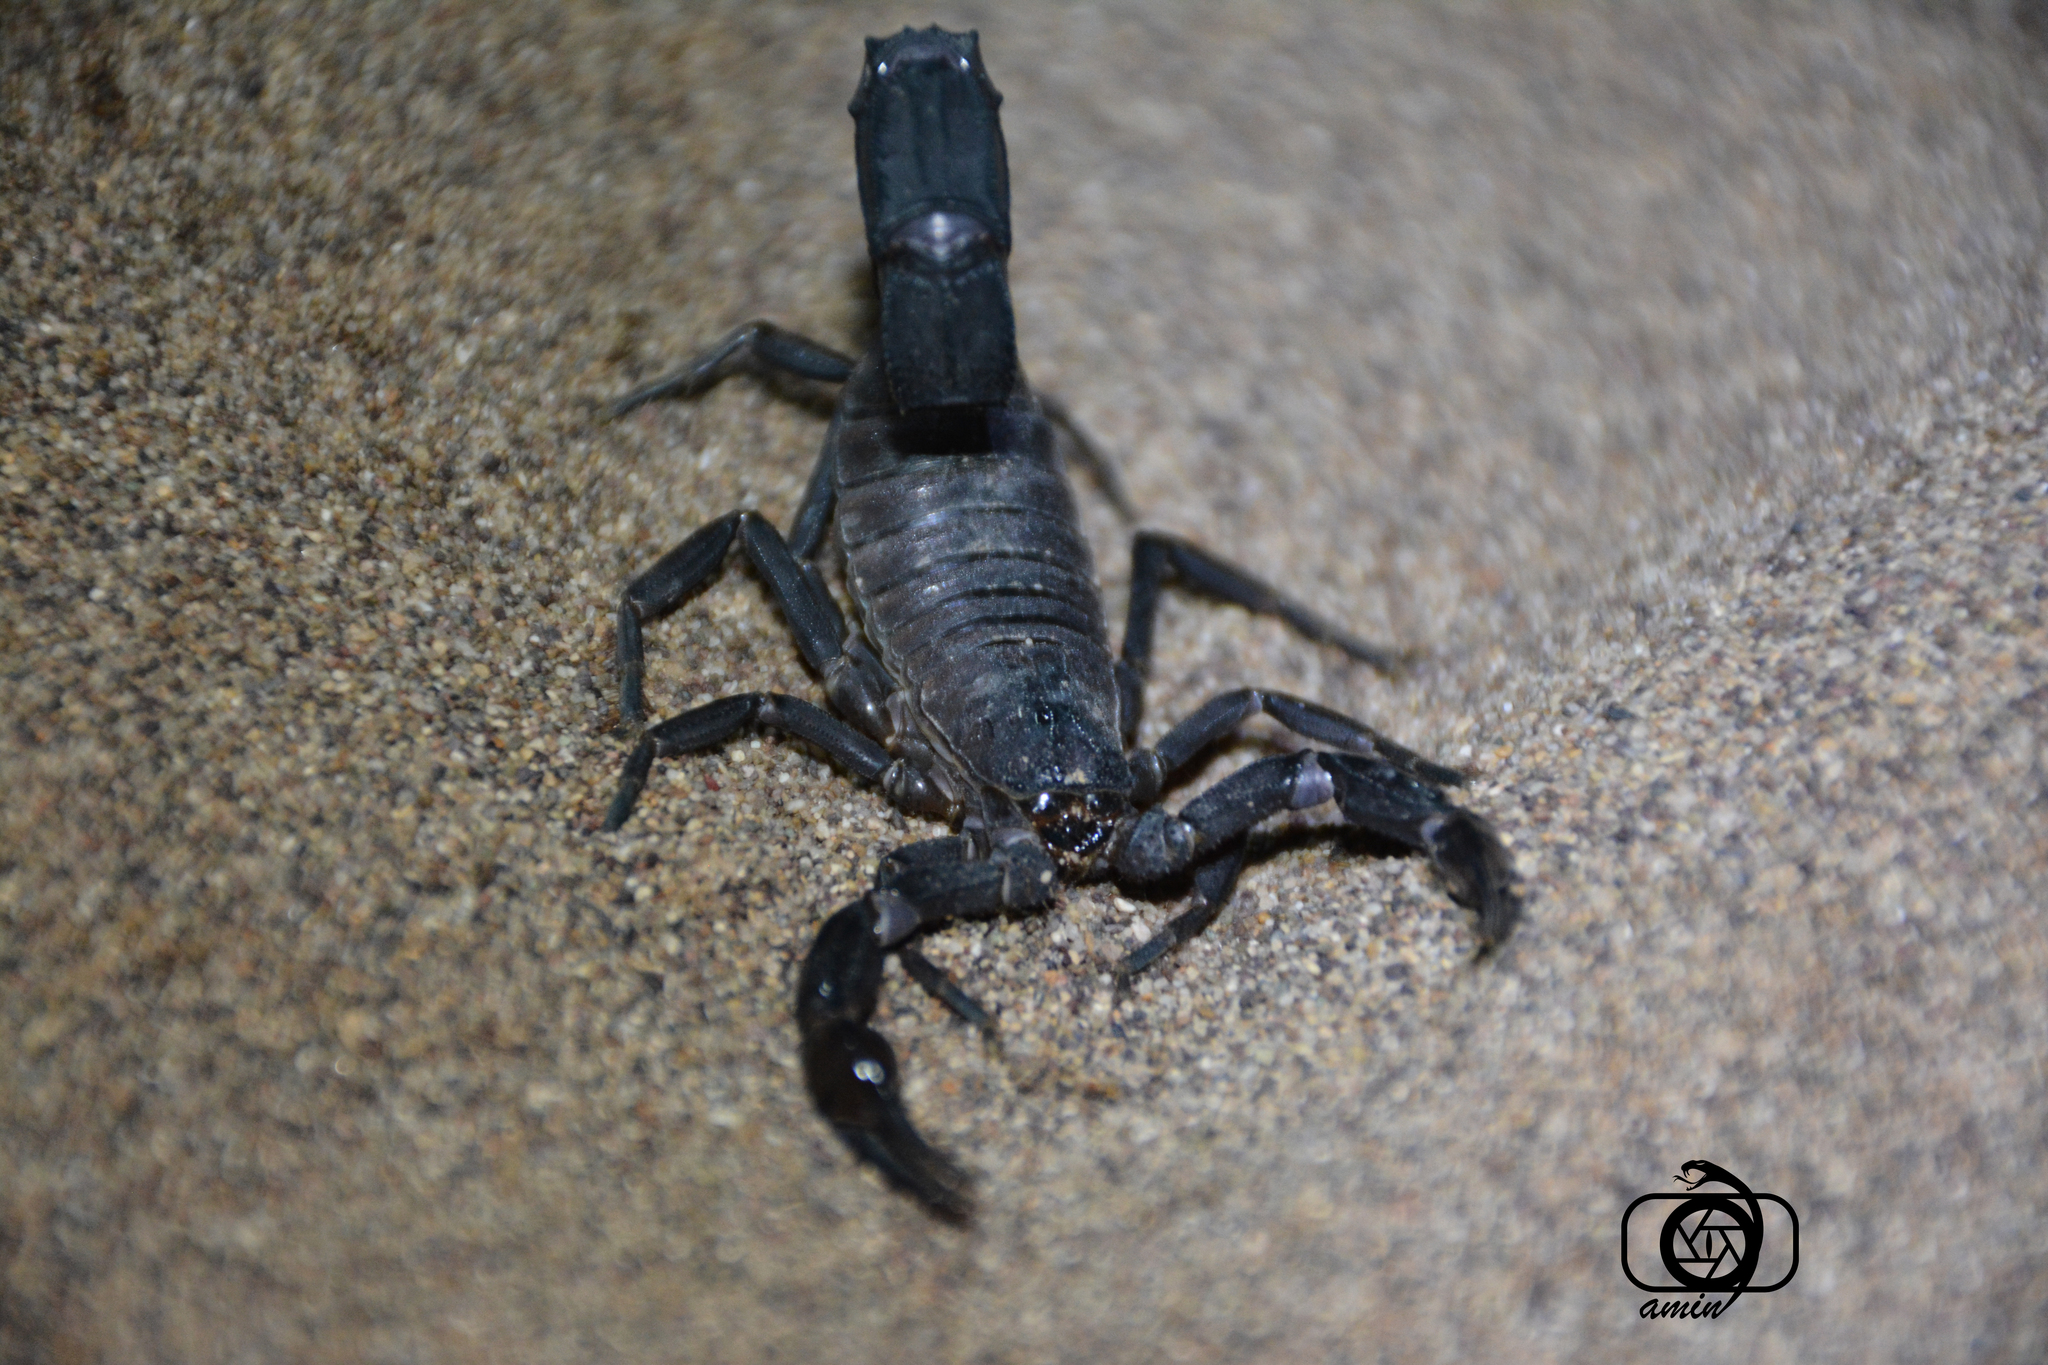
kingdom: Animalia
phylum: Arthropoda
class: Arachnida
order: Scorpiones
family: Buthidae
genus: Androctonus
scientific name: Androctonus crassicauda
